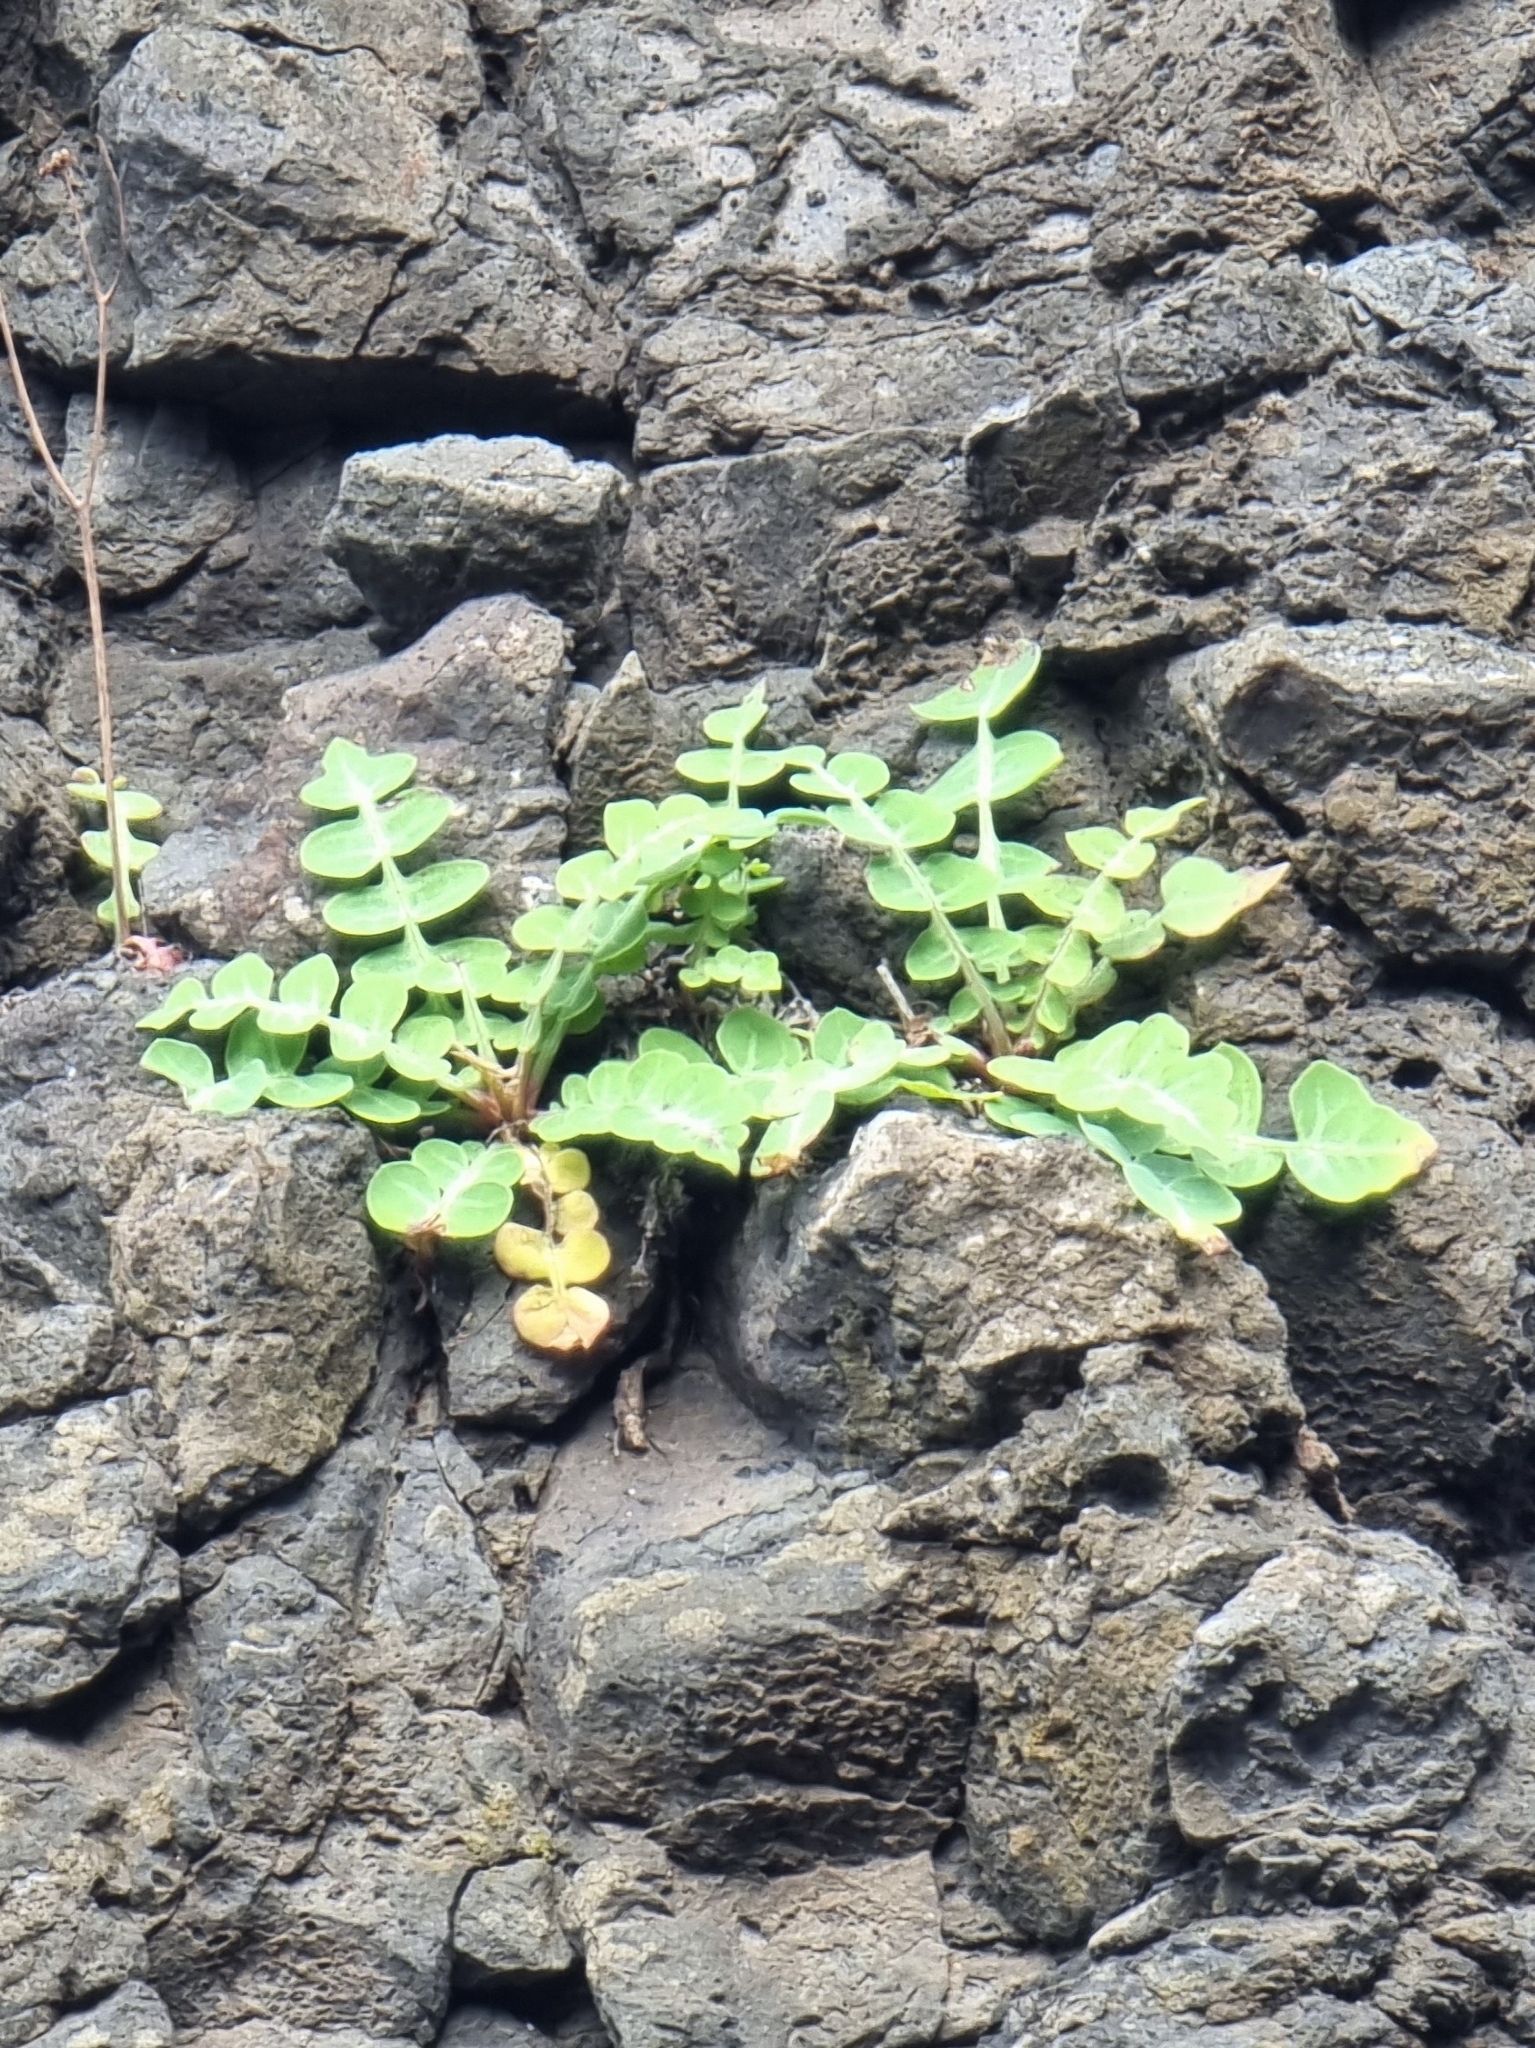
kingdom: Plantae
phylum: Tracheophyta
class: Magnoliopsida
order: Asterales
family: Asteraceae
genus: Sonchus
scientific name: Sonchus latifolius
